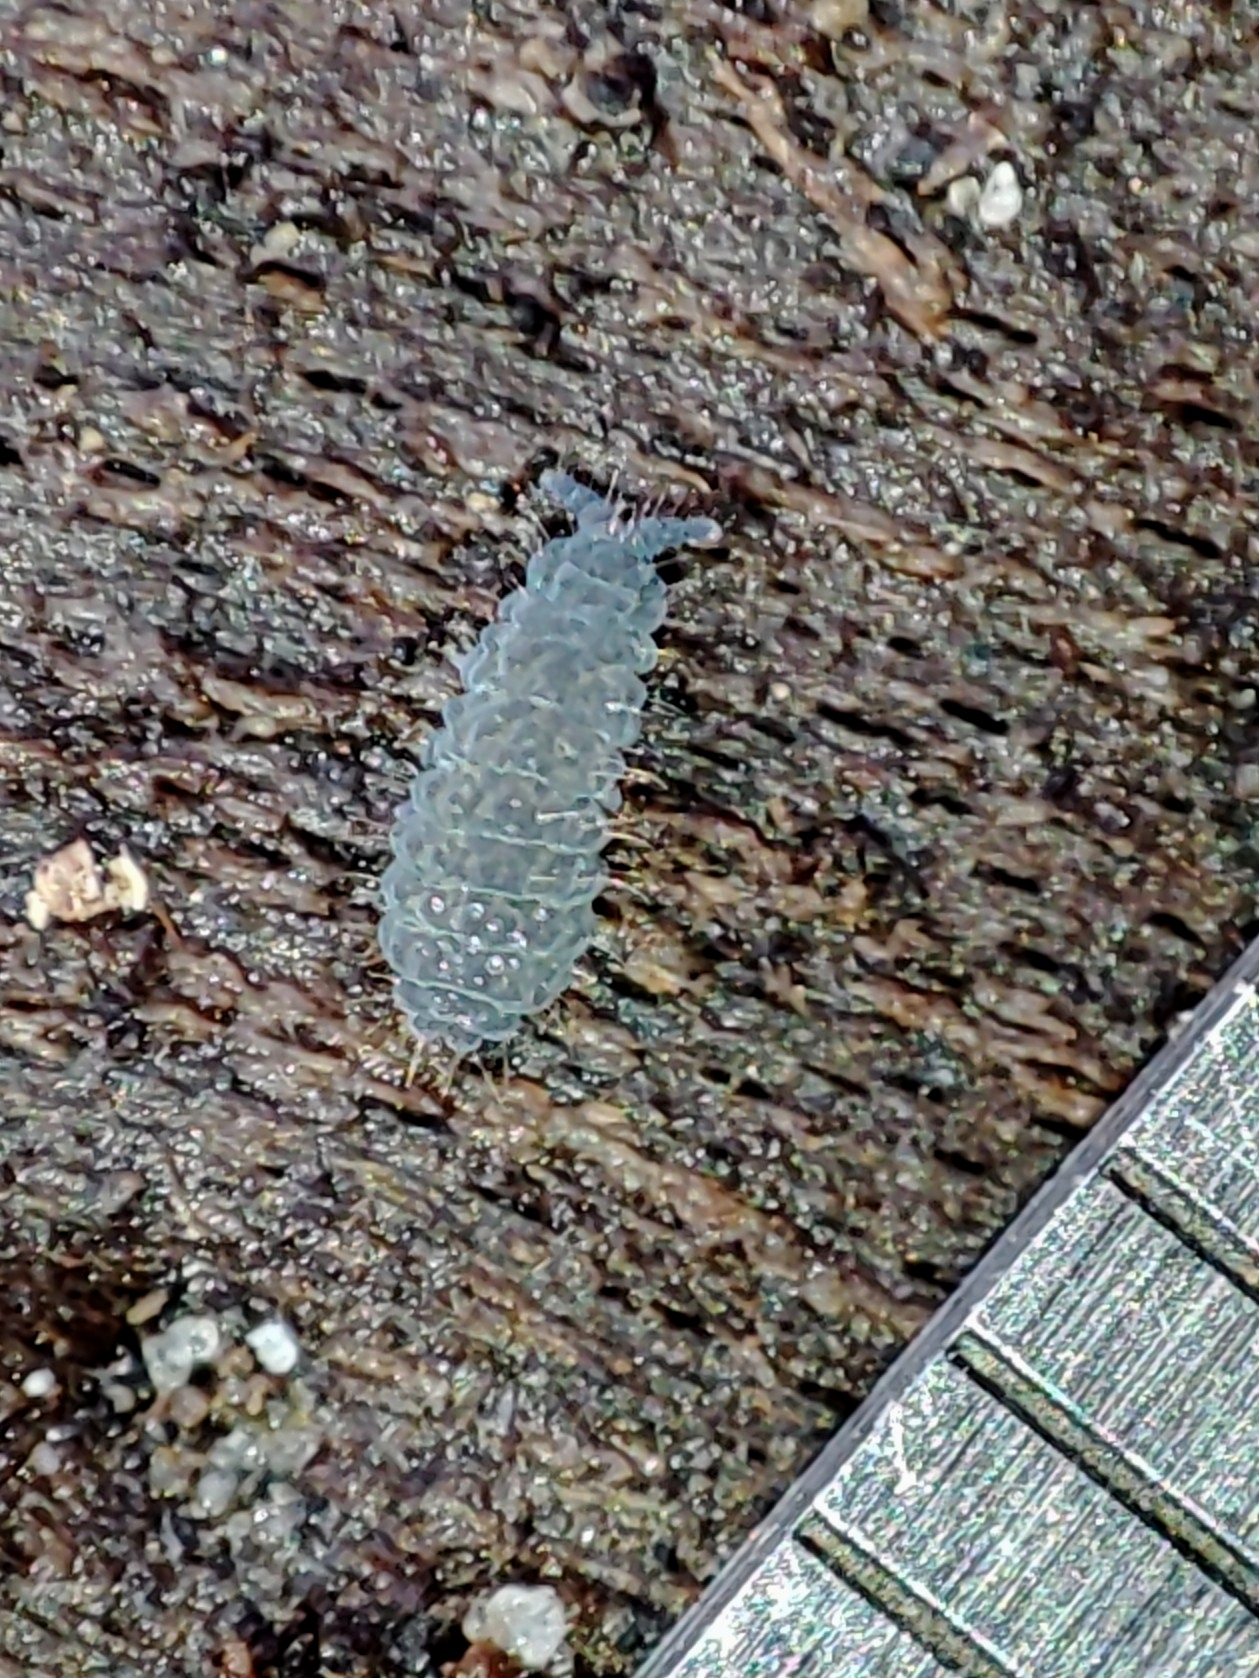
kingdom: Animalia
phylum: Arthropoda
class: Collembola
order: Poduromorpha
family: Neanuridae
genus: Neanura
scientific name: Neanura muscorum
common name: Springtail
